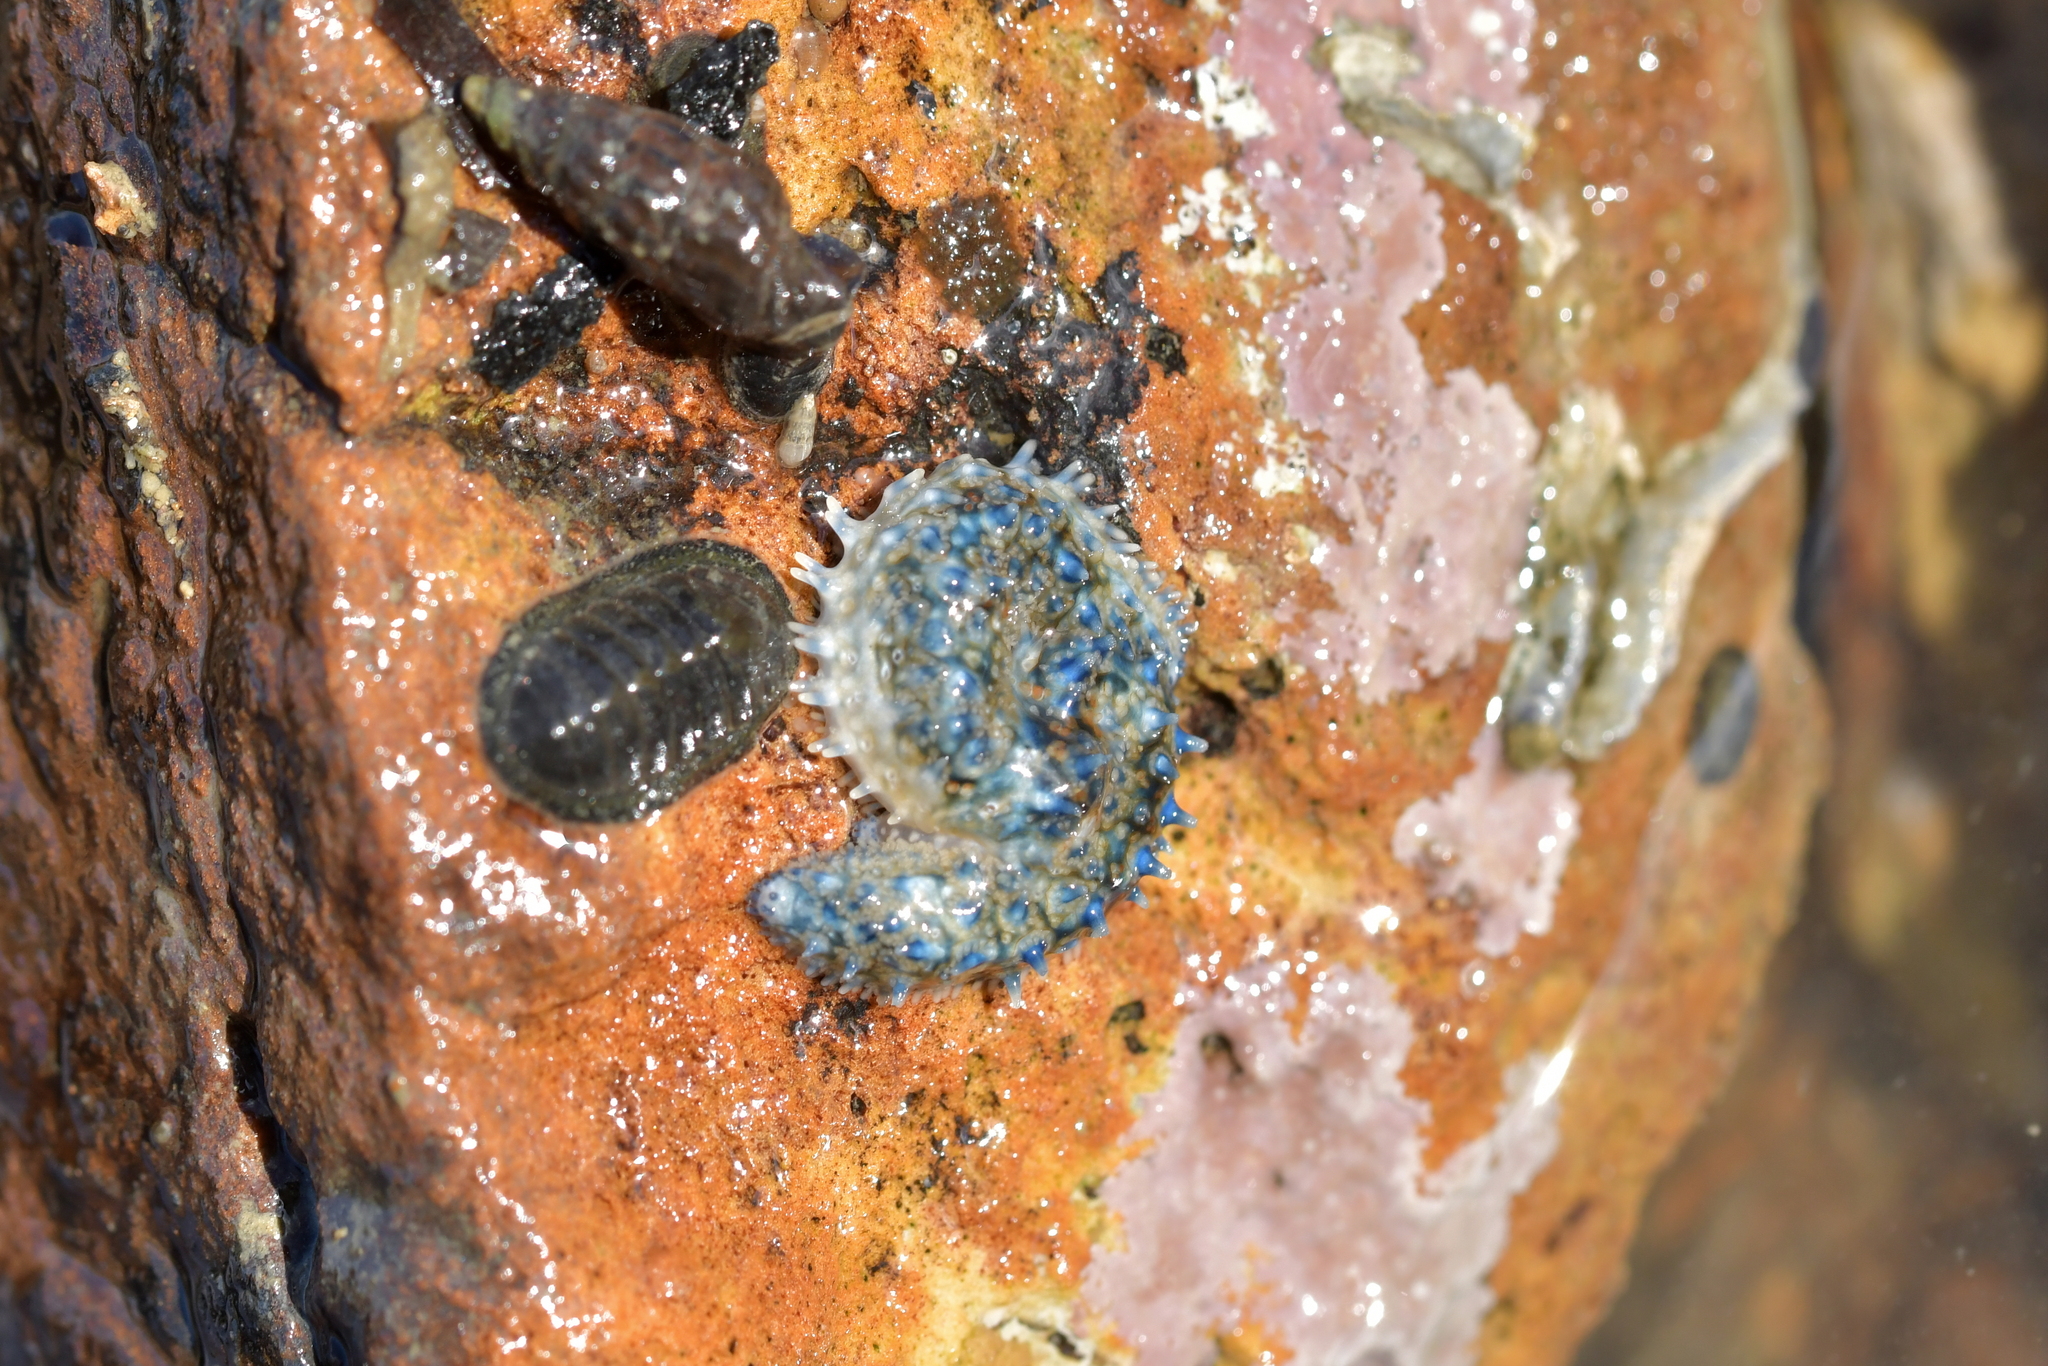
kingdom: Animalia
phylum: Echinodermata
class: Asteroidea
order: Forcipulatida
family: Asteriidae
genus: Coscinasterias
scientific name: Coscinasterias muricata
